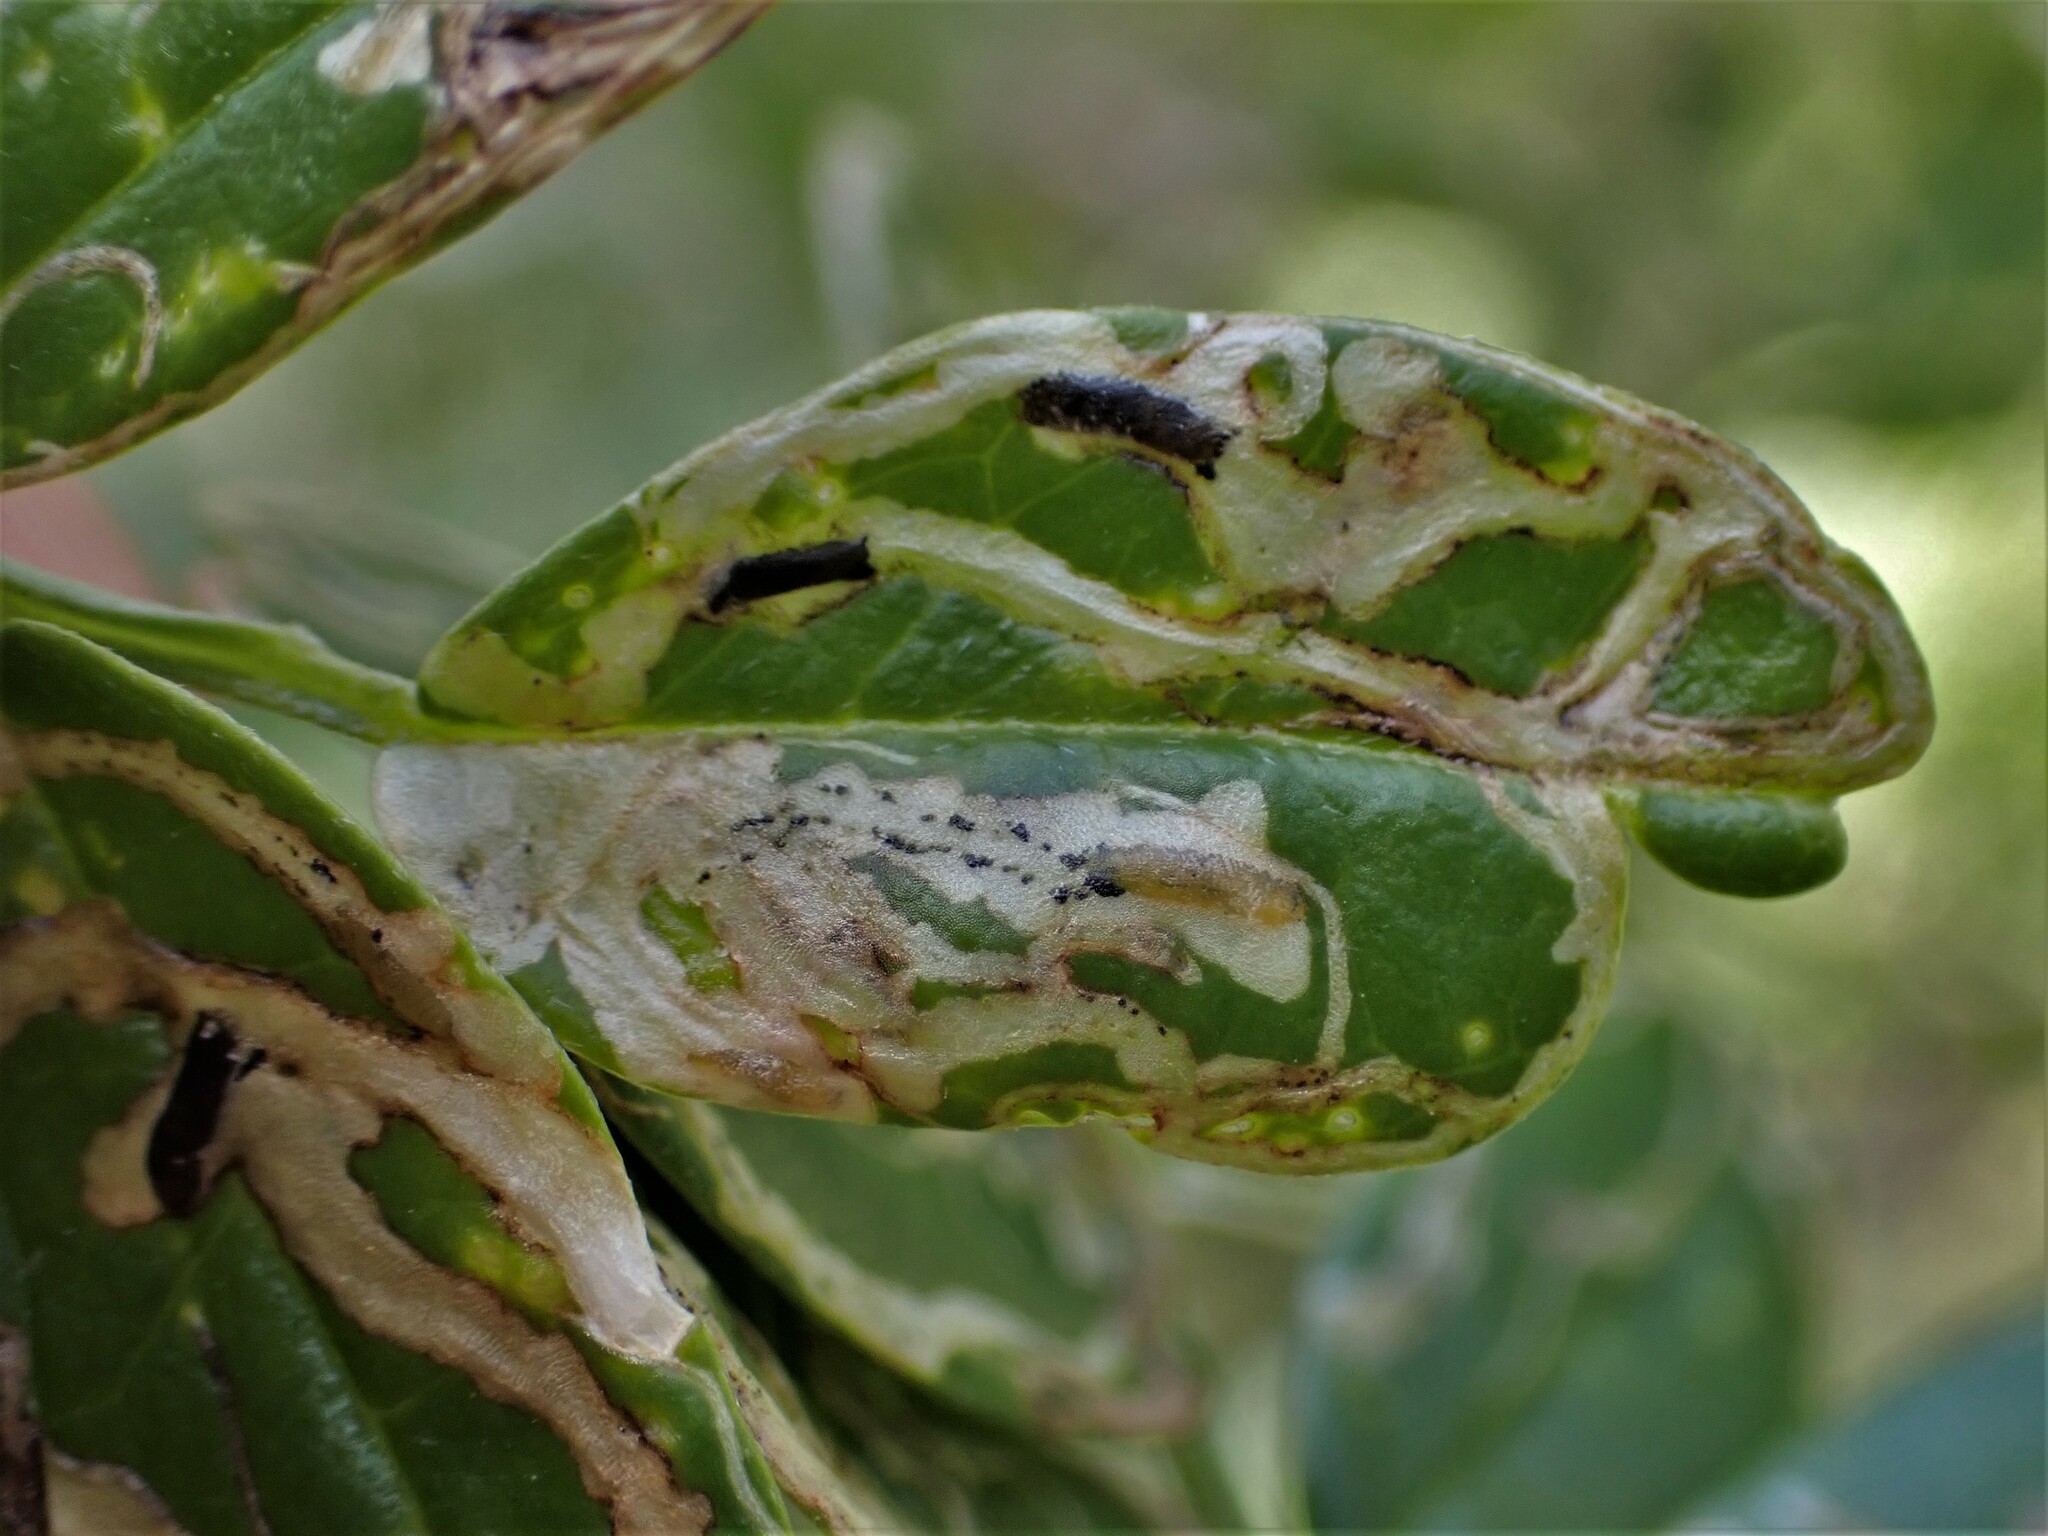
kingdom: Animalia
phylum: Arthropoda
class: Insecta
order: Diptera
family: Agromyzidae
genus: Liriomyza
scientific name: Liriomyza clianthi
